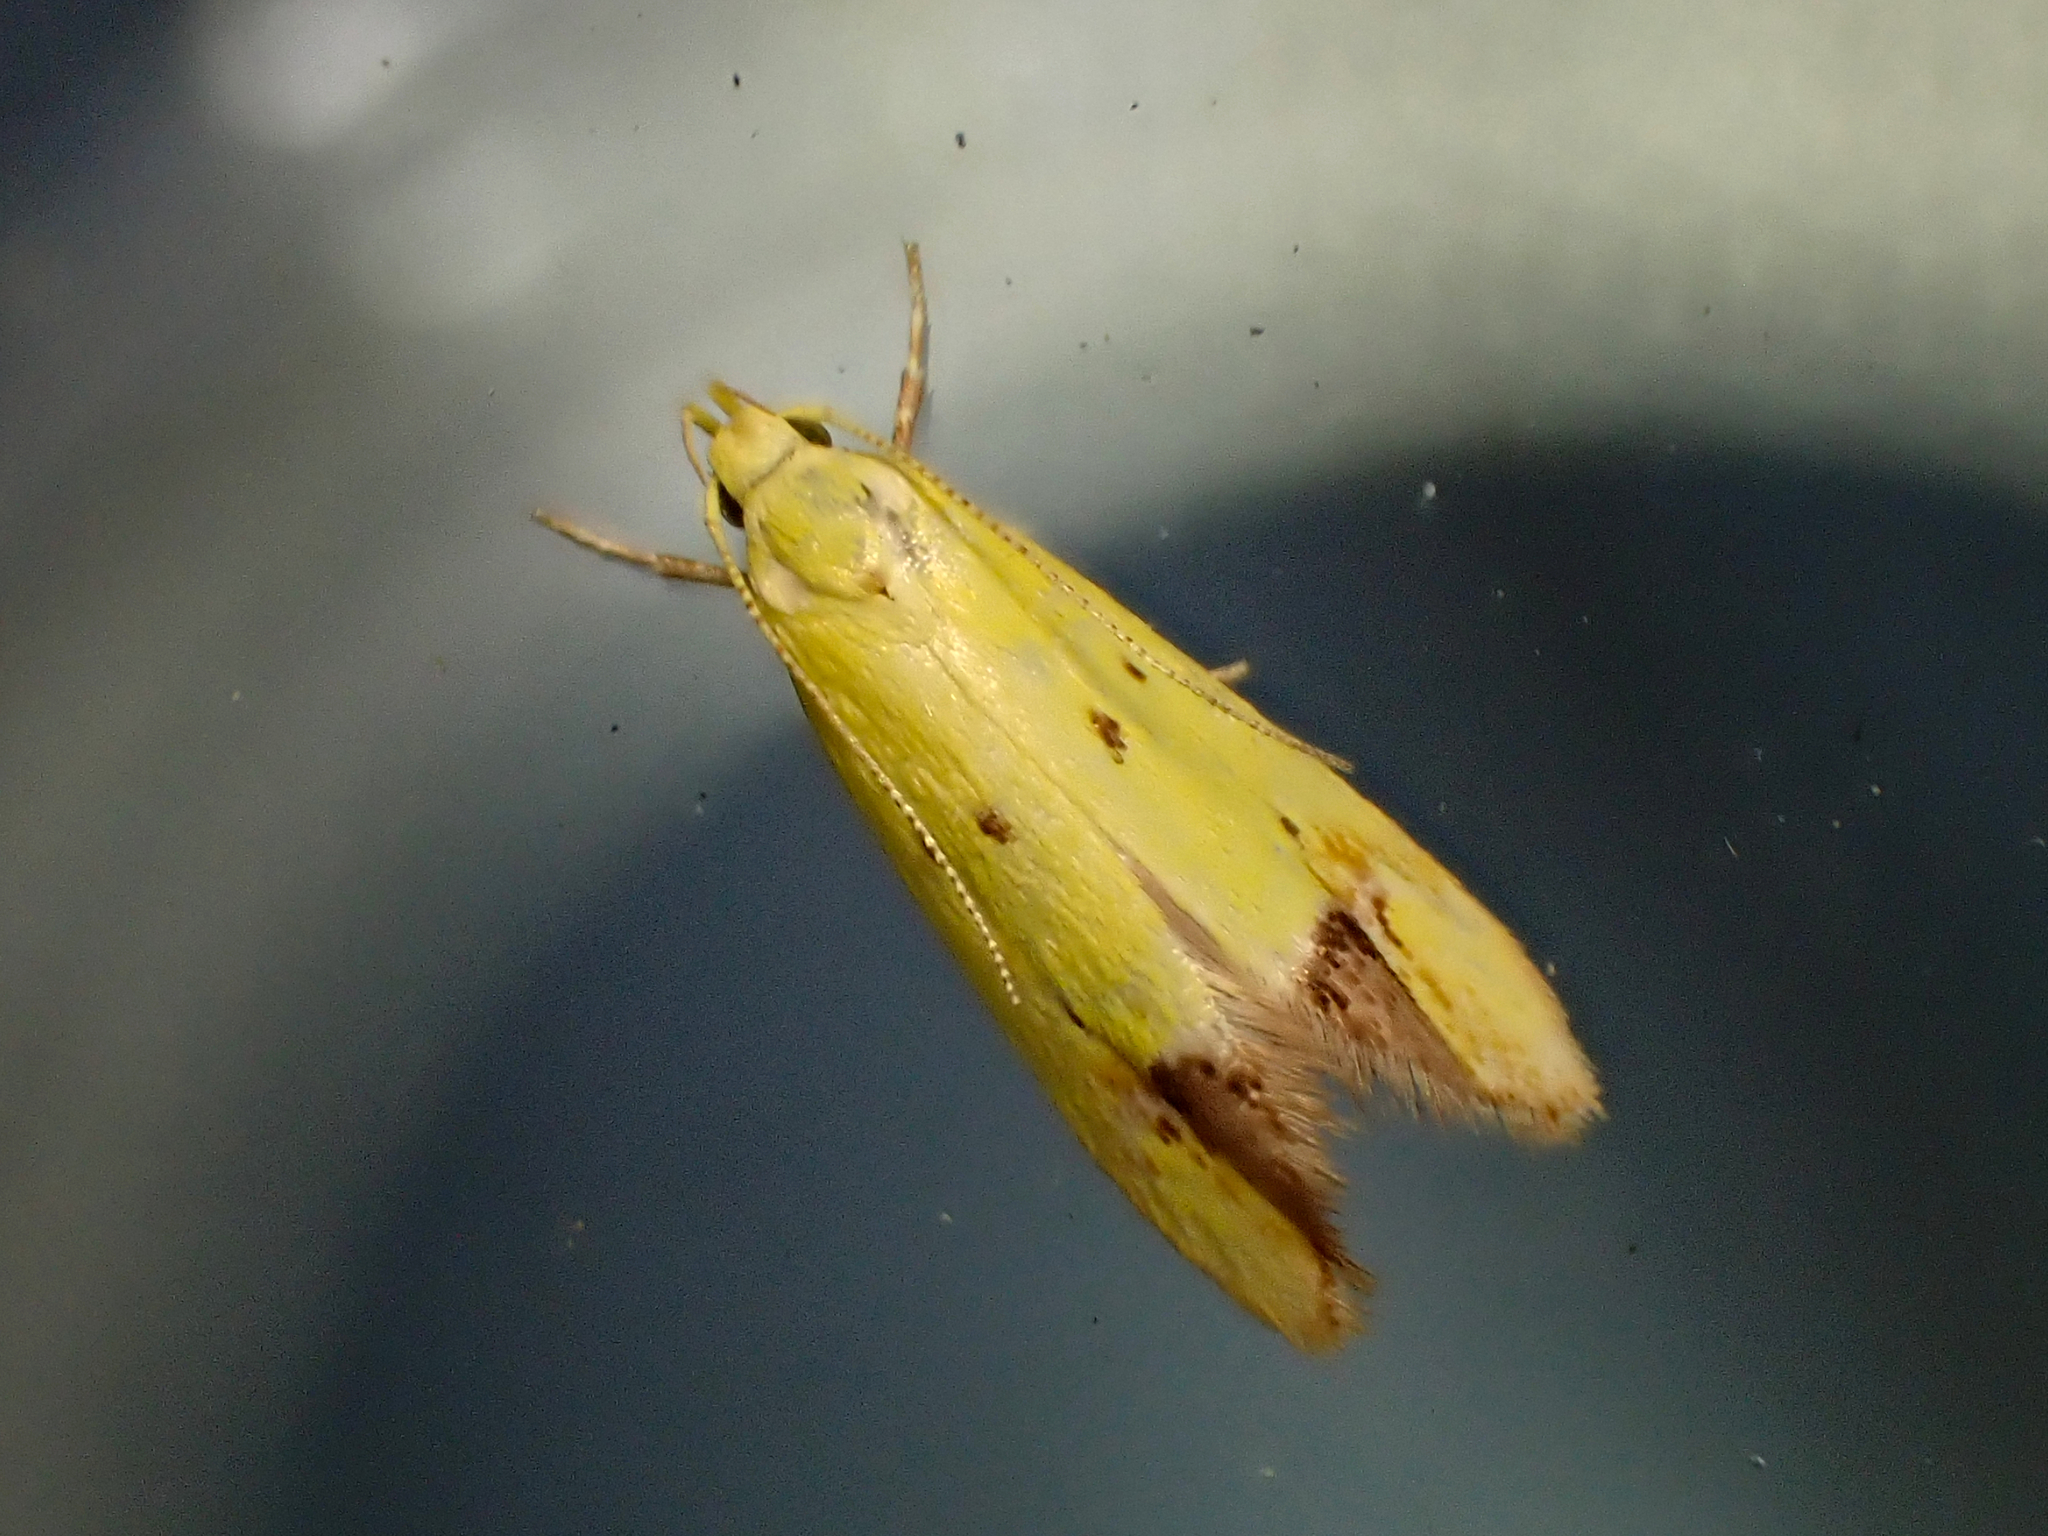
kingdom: Animalia
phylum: Arthropoda
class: Insecta
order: Lepidoptera
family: Oecophoridae
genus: Gymnobathra
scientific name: Gymnobathra flavidella
